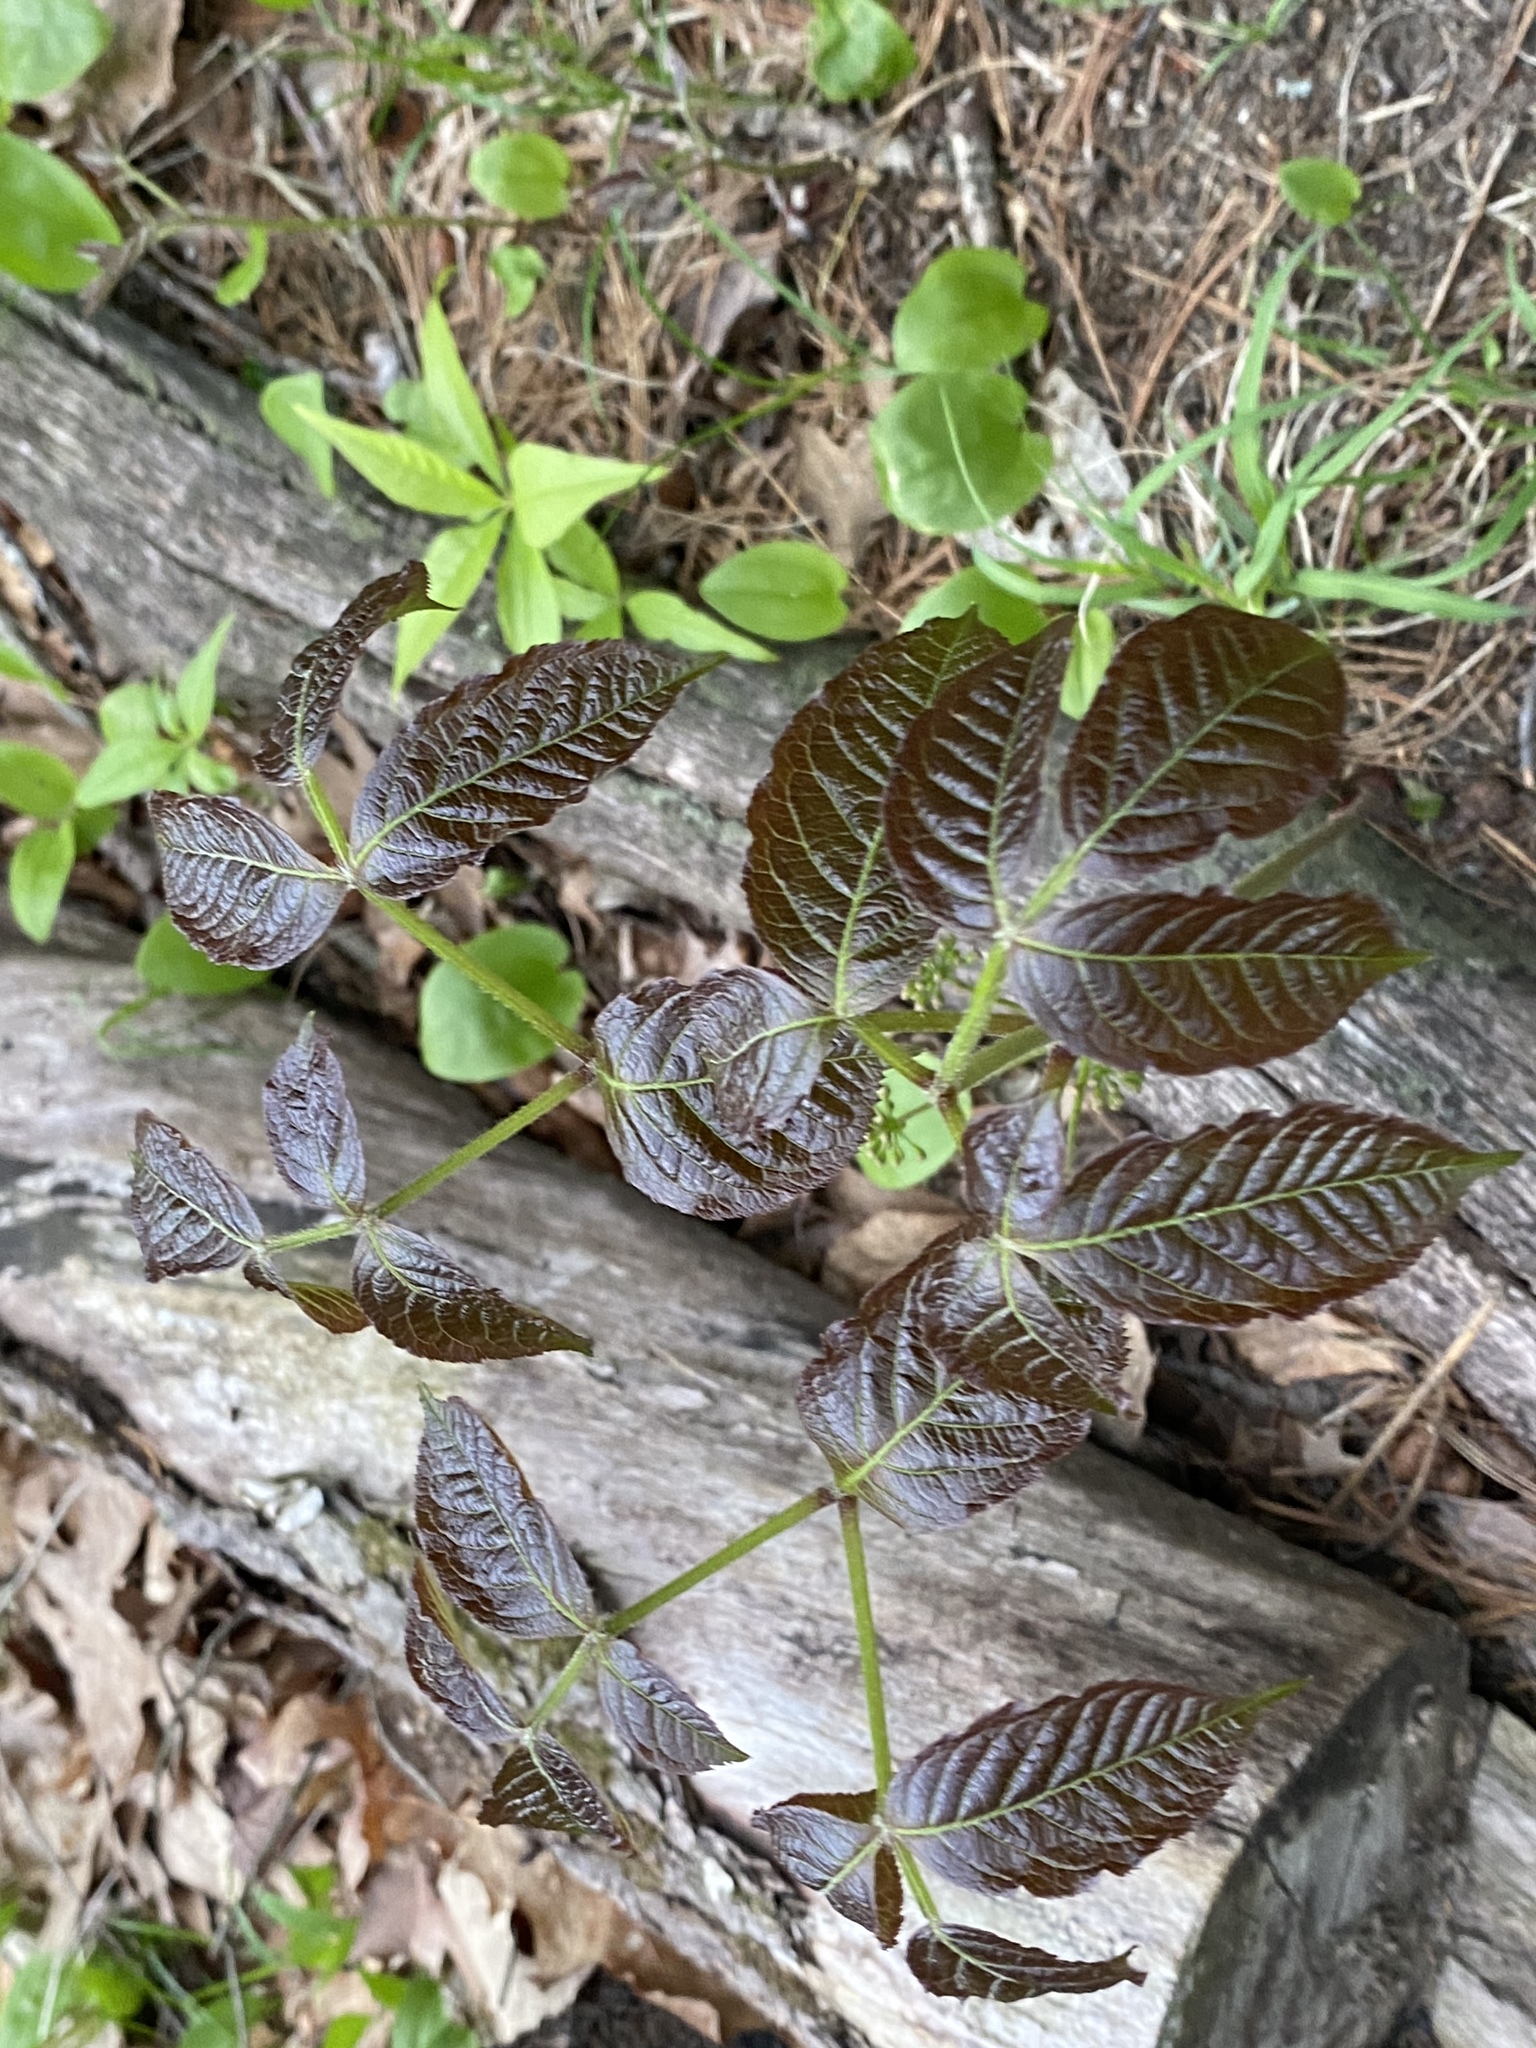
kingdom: Plantae
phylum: Tracheophyta
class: Magnoliopsida
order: Apiales
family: Araliaceae
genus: Aralia
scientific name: Aralia nudicaulis
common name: Wild sarsaparilla
